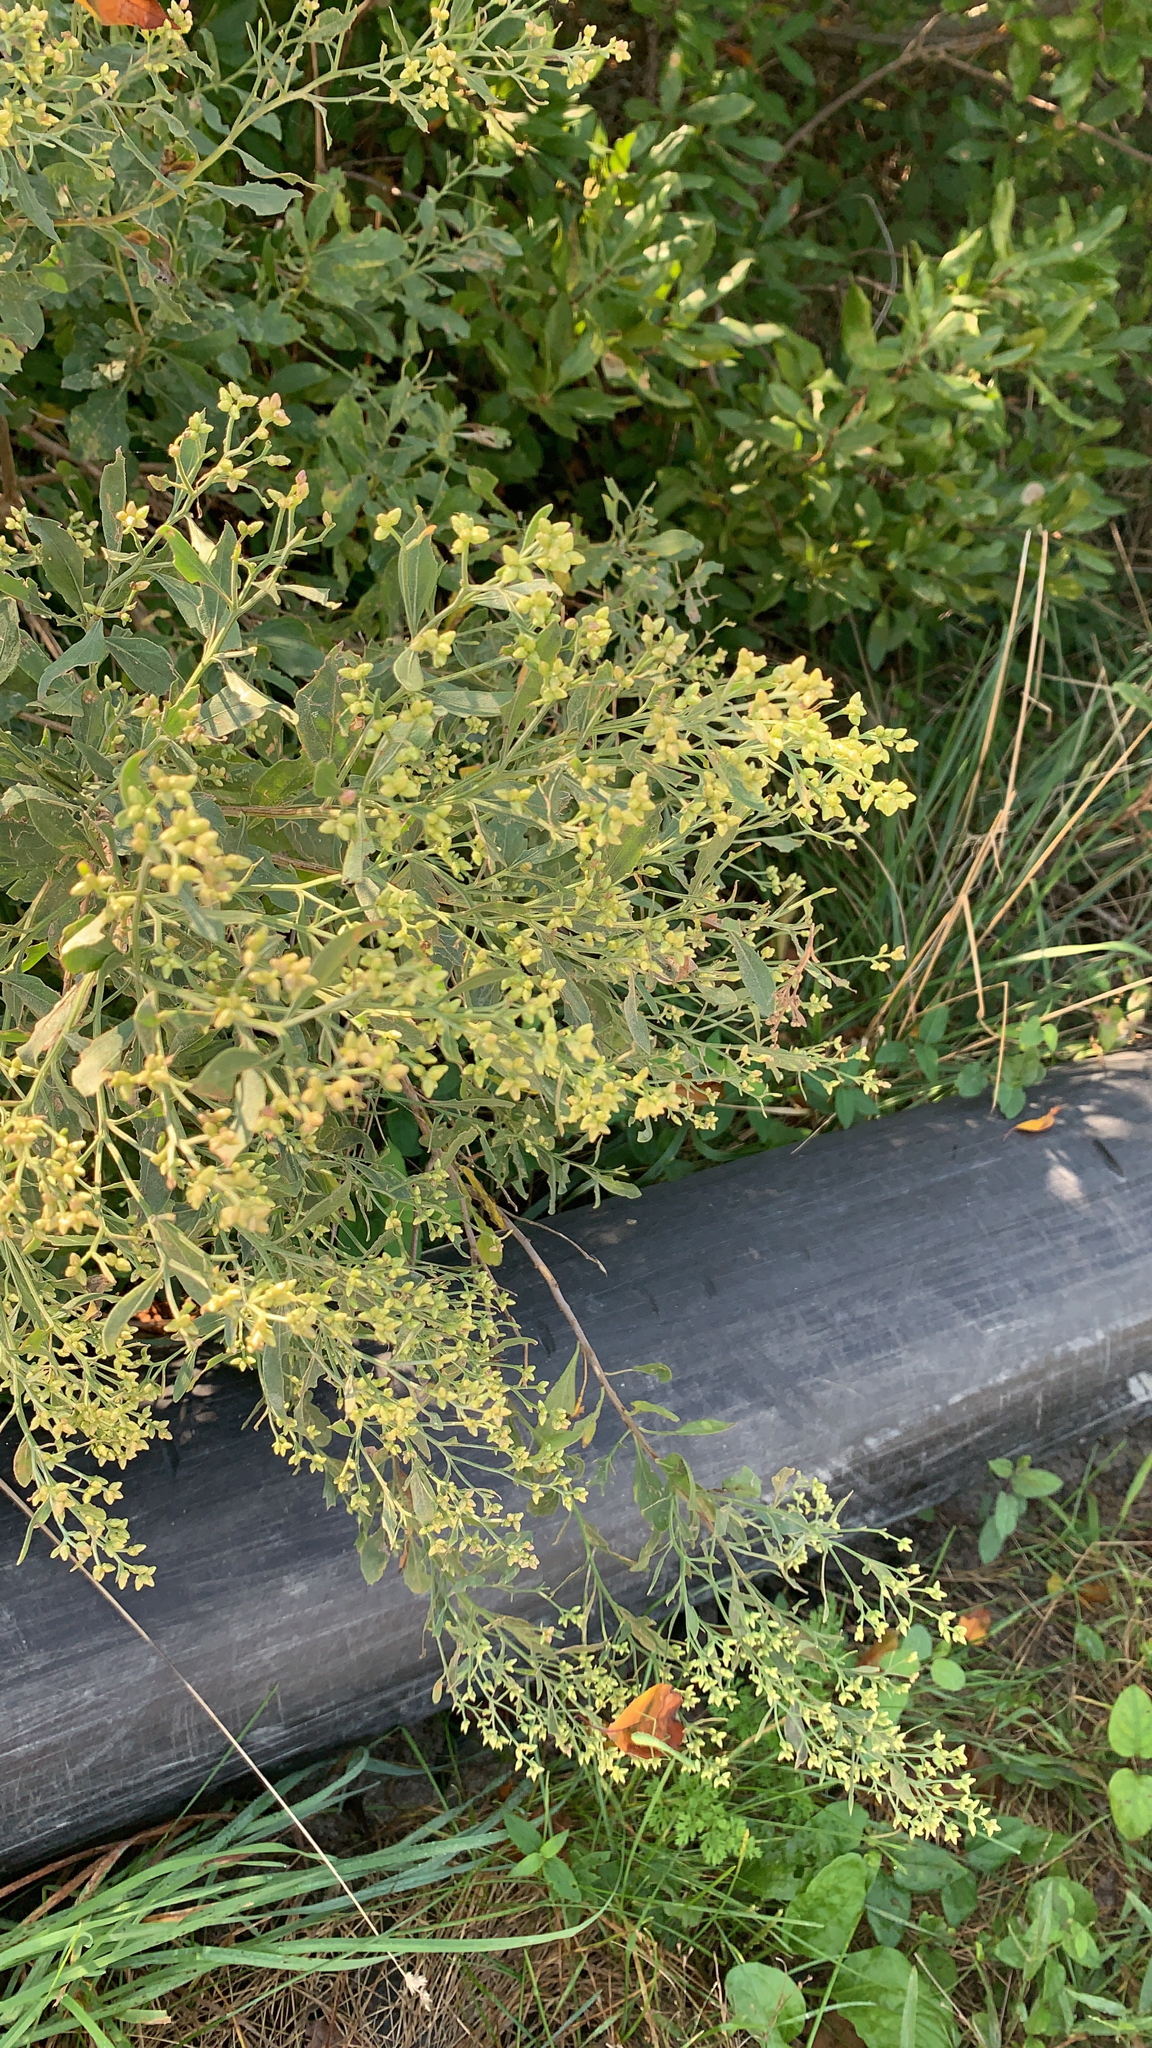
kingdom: Plantae
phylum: Tracheophyta
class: Magnoliopsida
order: Asterales
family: Asteraceae
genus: Baccharis
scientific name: Baccharis halimifolia
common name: Eastern baccharis
